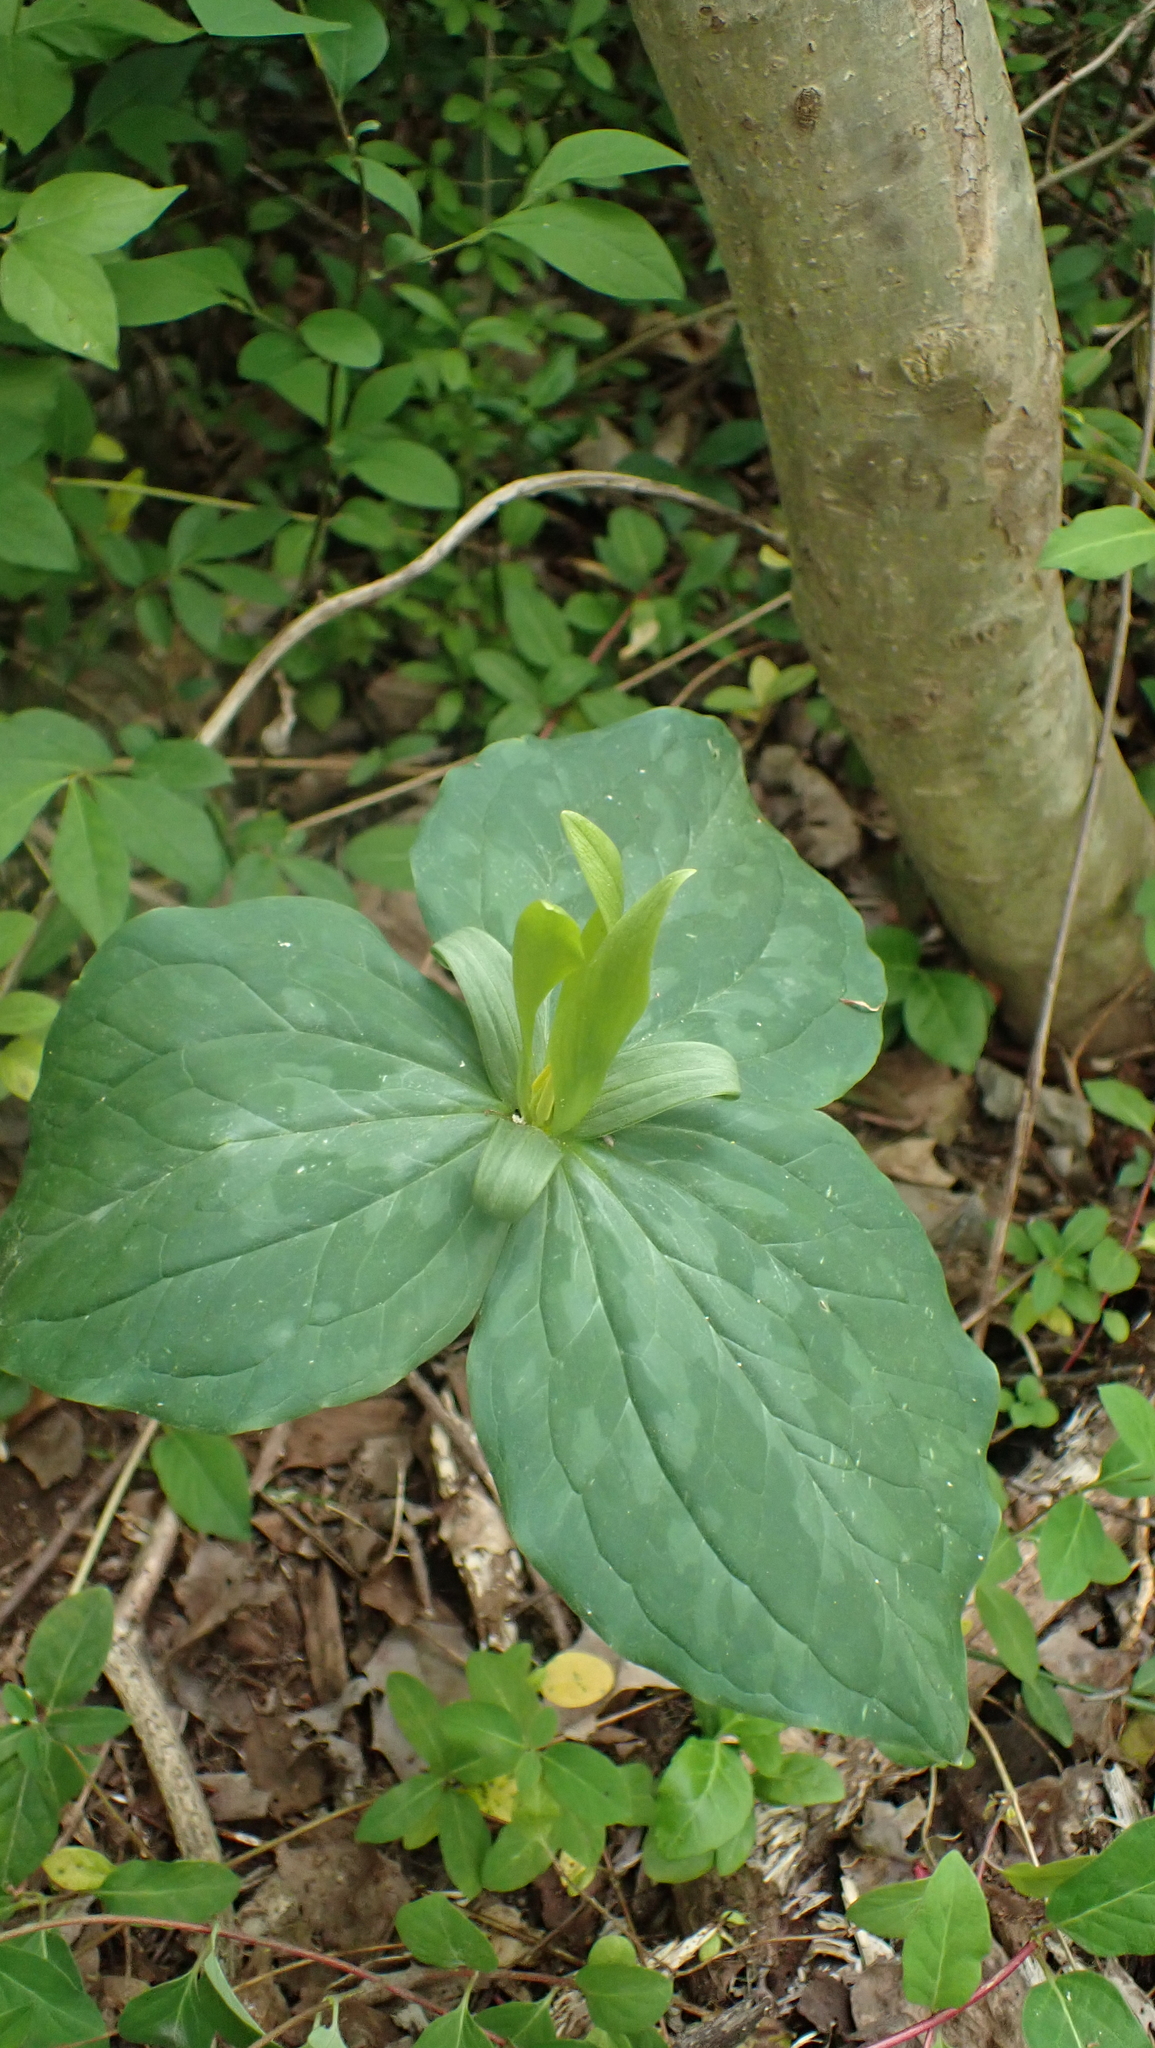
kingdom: Plantae
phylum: Tracheophyta
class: Liliopsida
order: Liliales
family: Melanthiaceae
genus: Trillium
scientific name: Trillium luteum
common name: Wax trillium
